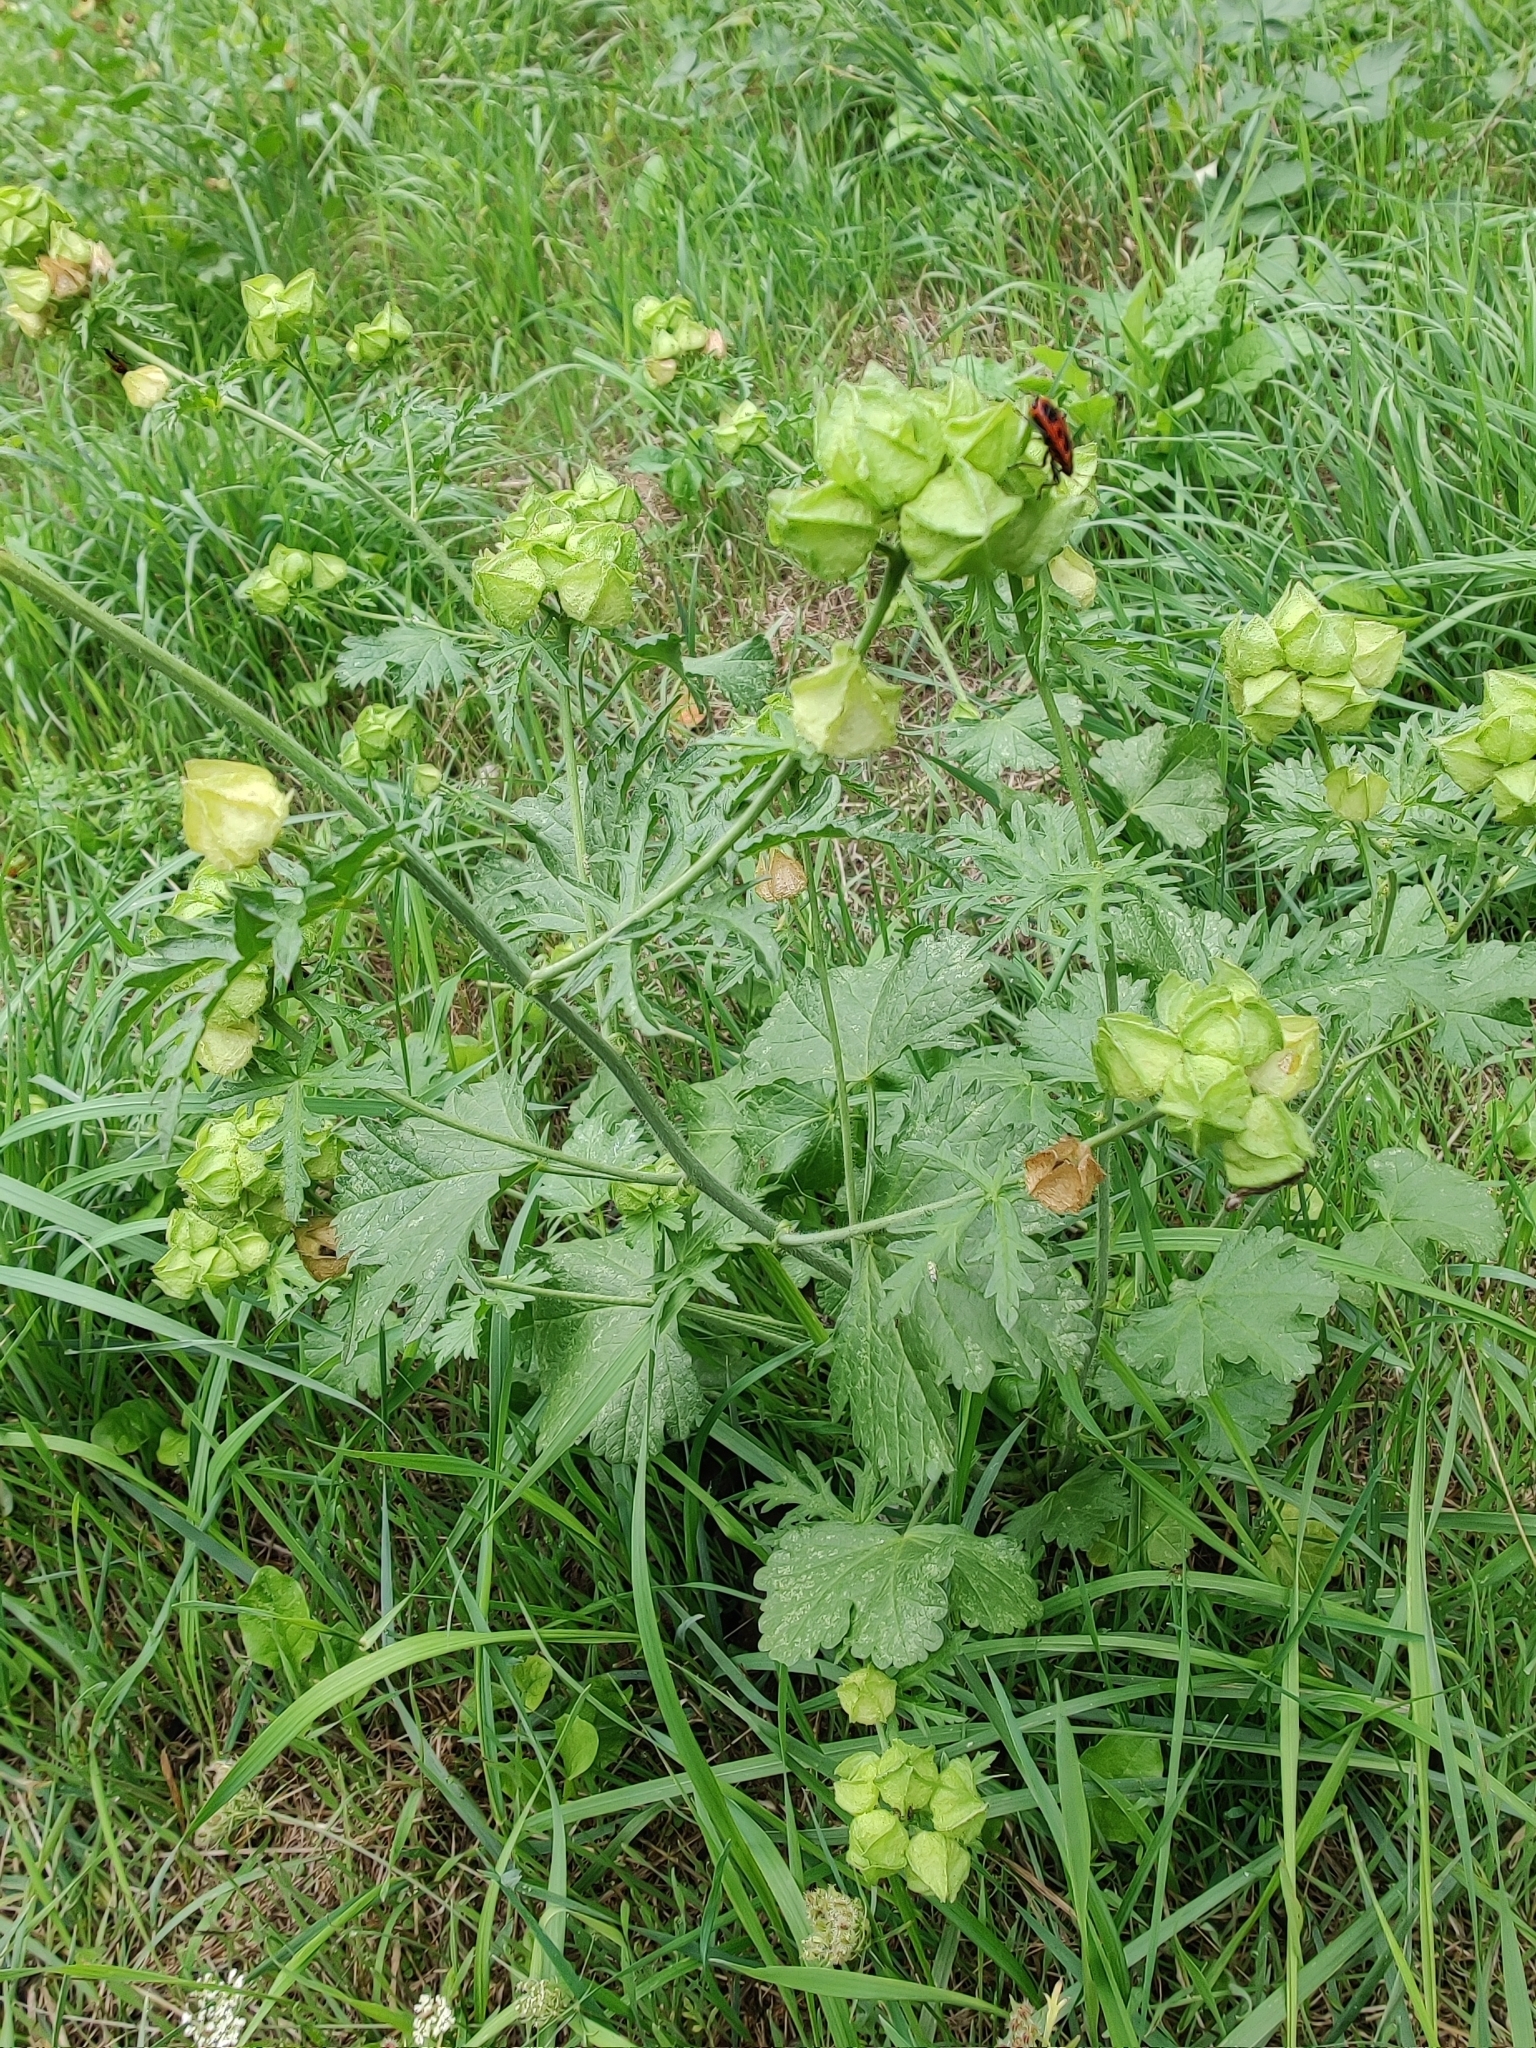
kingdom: Animalia
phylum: Arthropoda
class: Insecta
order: Hemiptera
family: Pyrrhocoridae
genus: Pyrrhocoris
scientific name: Pyrrhocoris apterus
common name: Firebug
